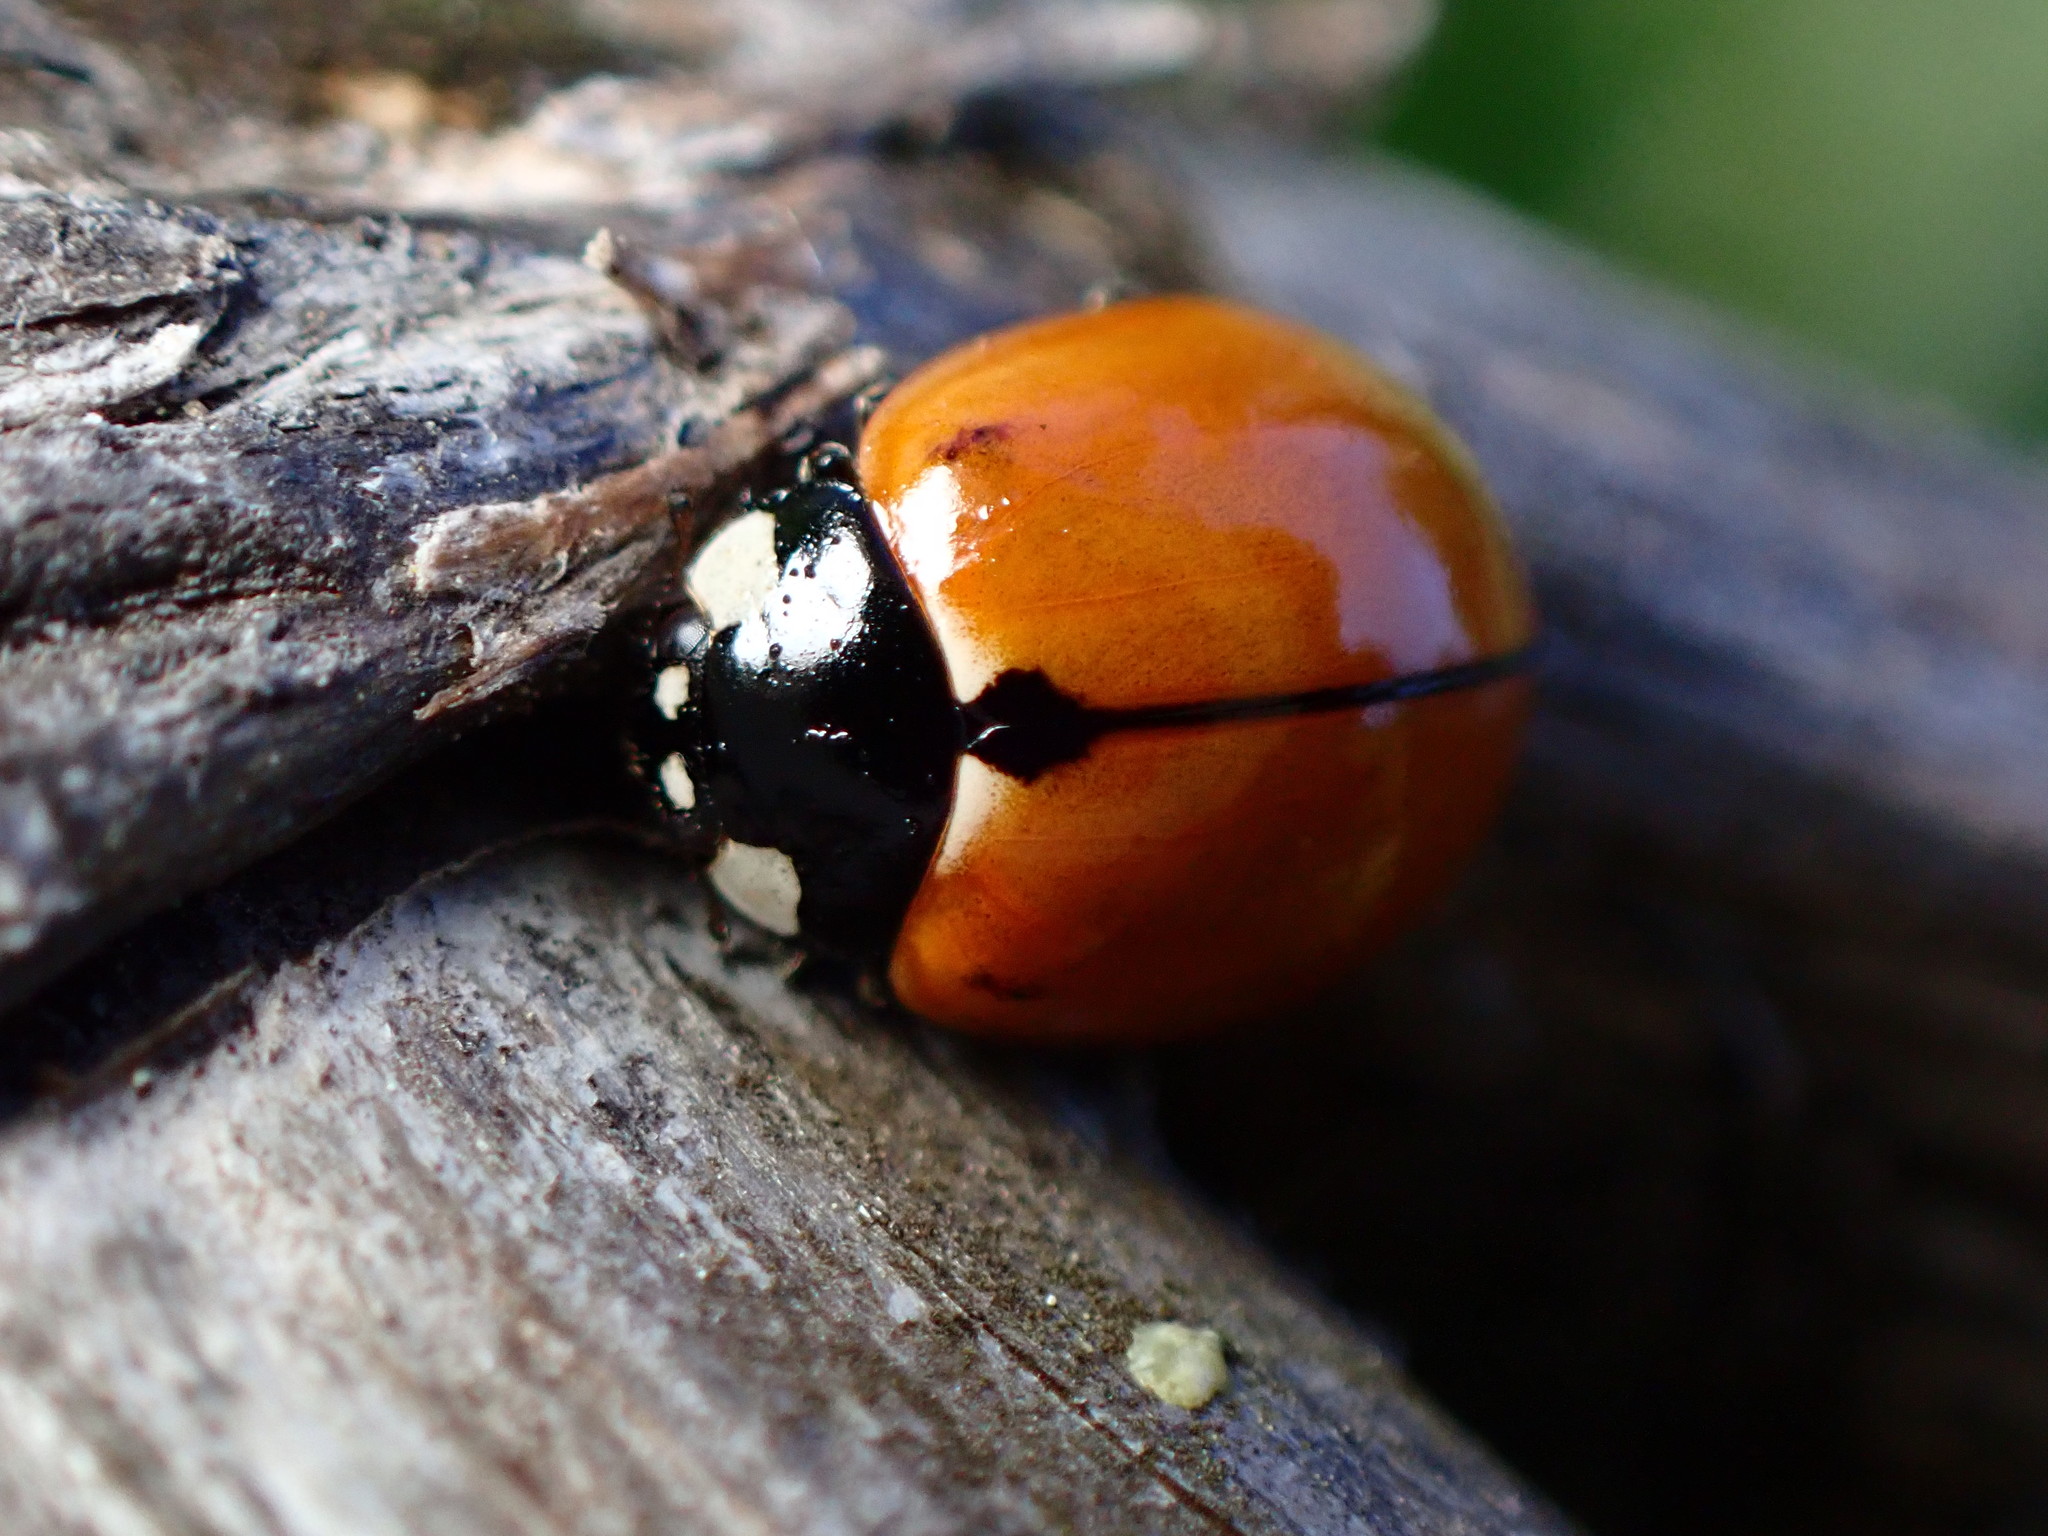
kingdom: Animalia
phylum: Arthropoda
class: Insecta
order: Coleoptera
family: Coccinellidae
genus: Coccinella
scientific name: Coccinella californica
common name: Lady beetle
